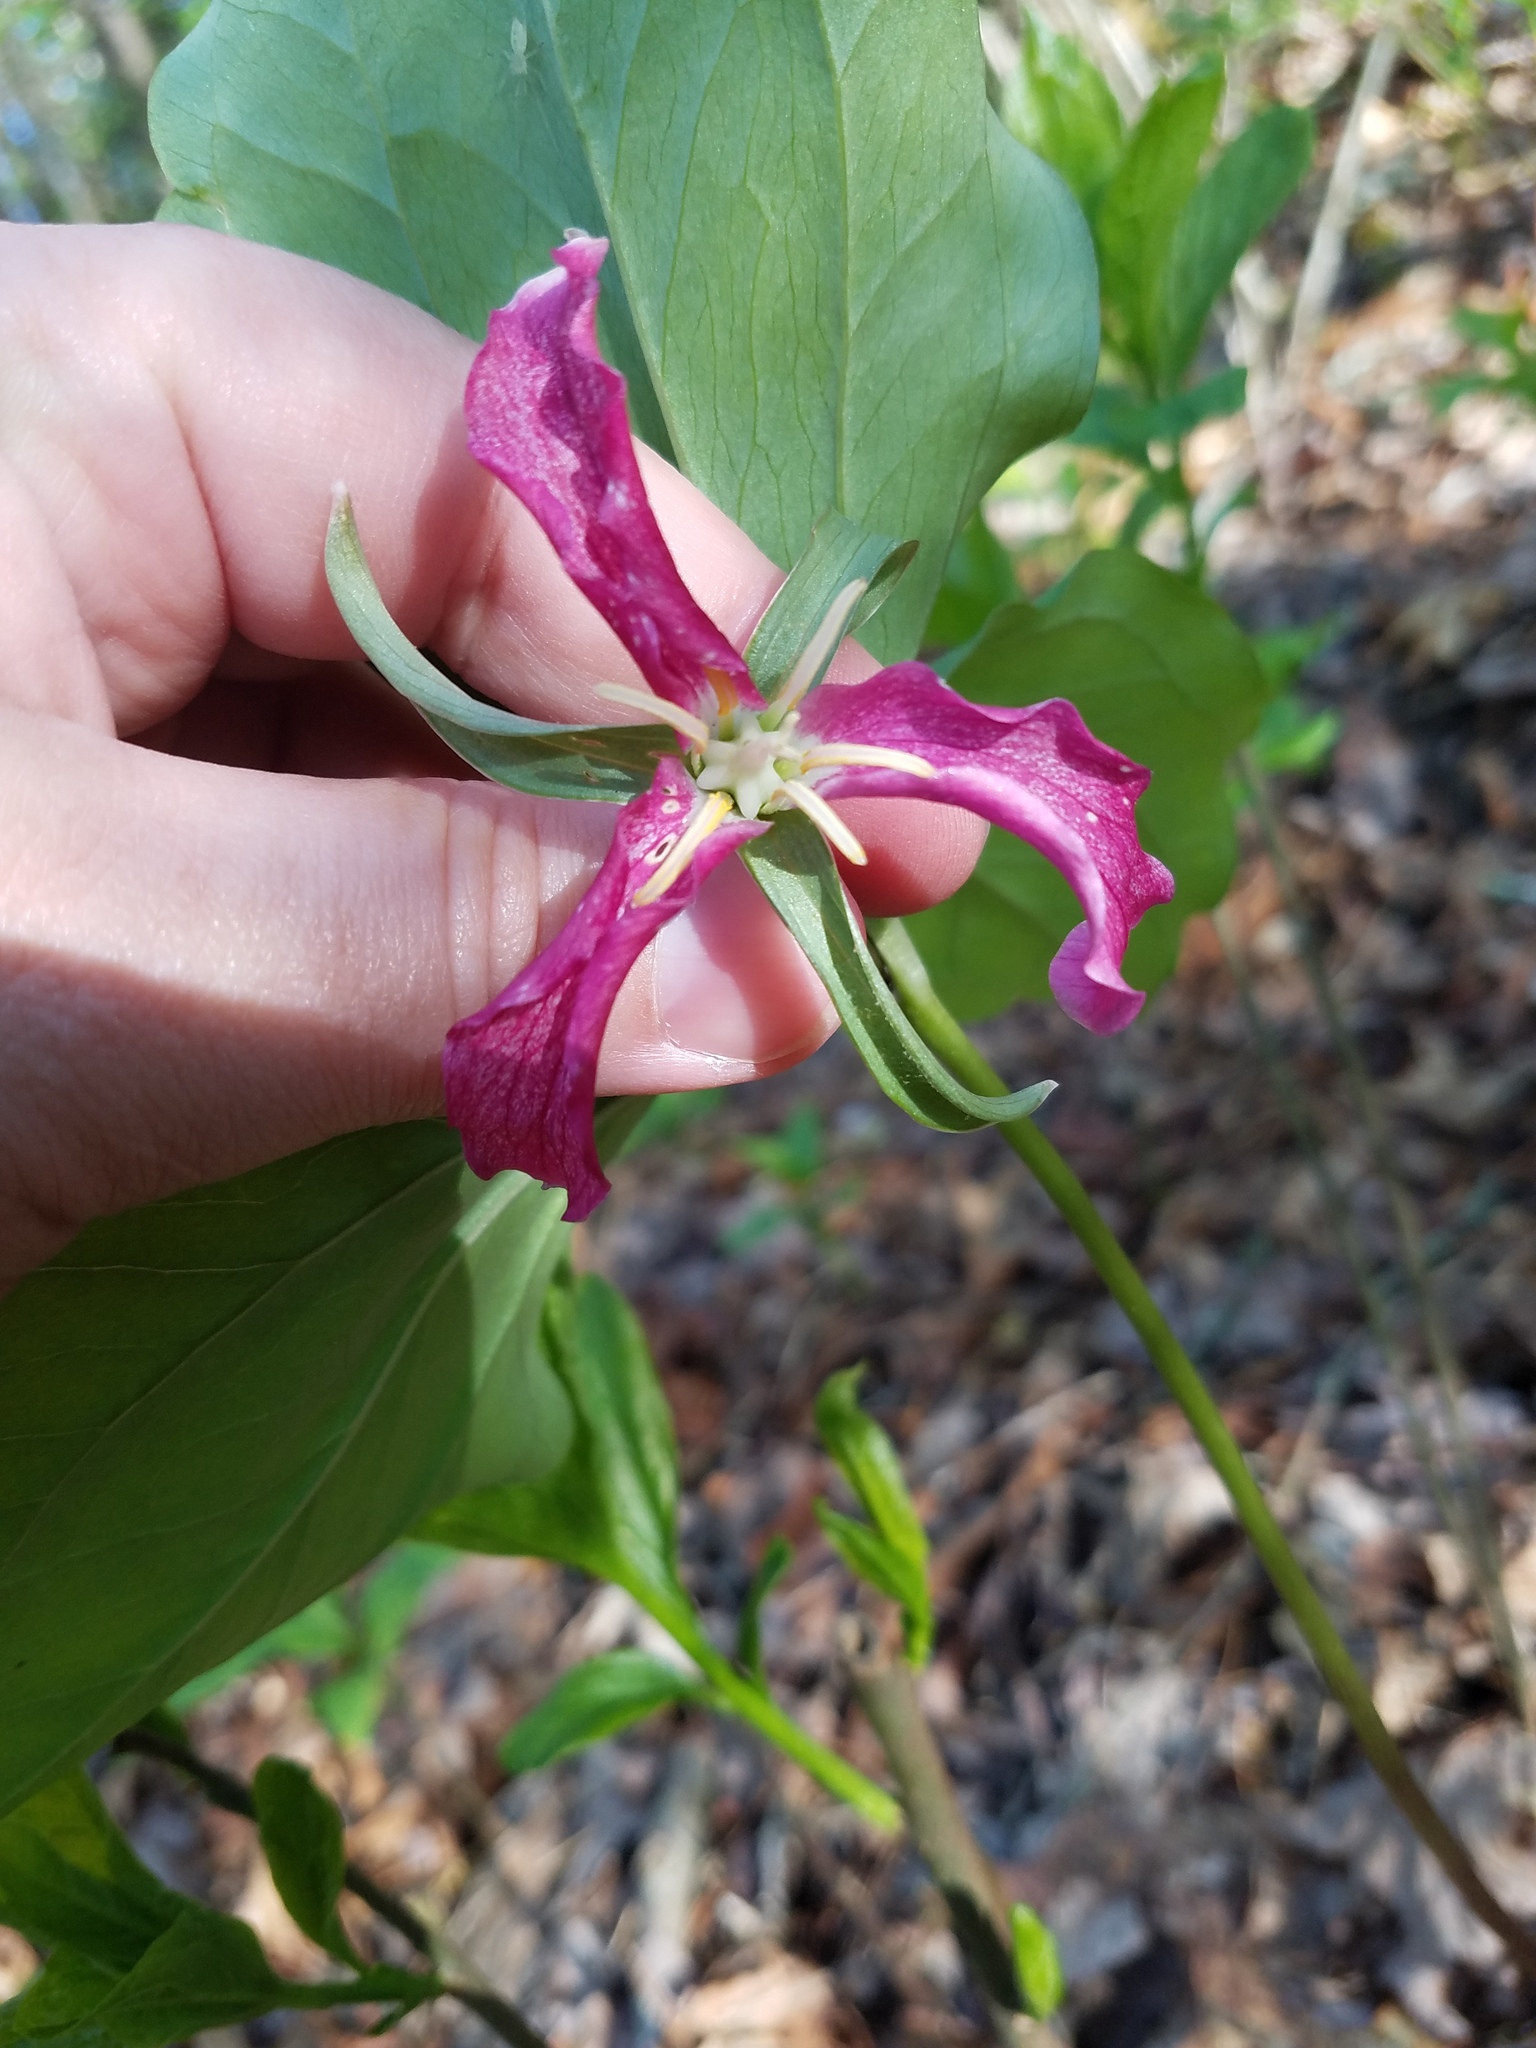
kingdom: Plantae
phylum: Tracheophyta
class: Liliopsida
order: Liliales
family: Melanthiaceae
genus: Trillium
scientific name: Trillium catesbaei
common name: Bashful trillium
